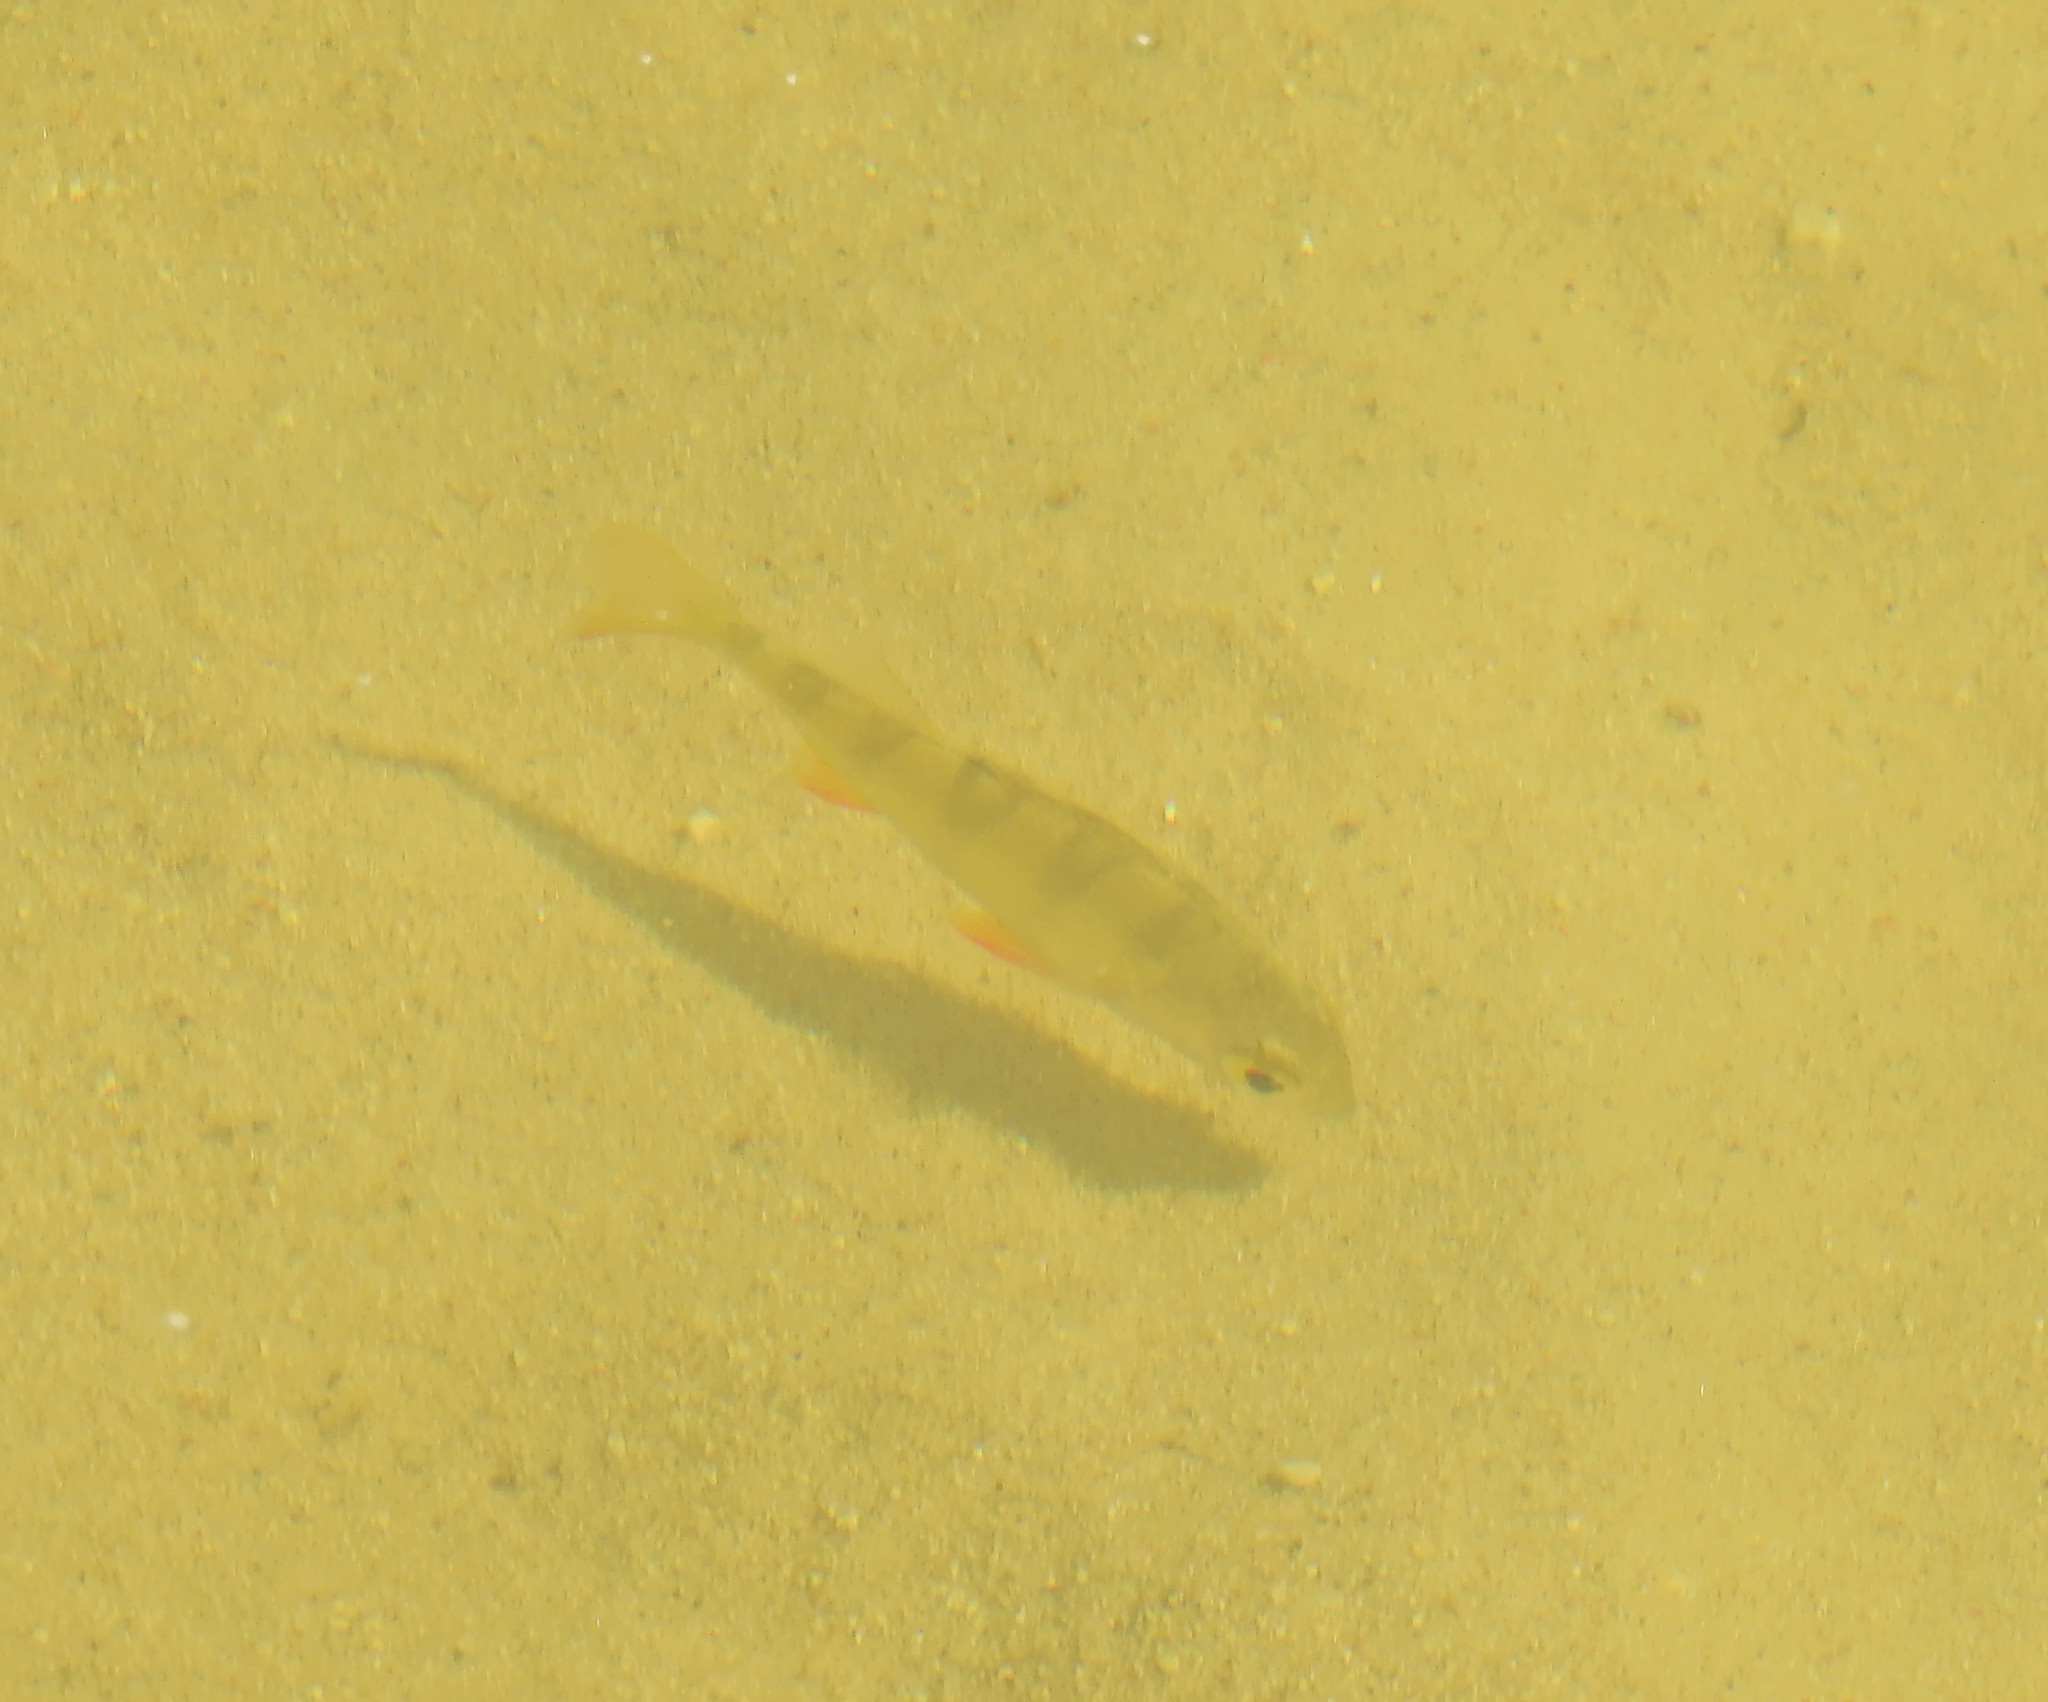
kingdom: Animalia
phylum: Chordata
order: Perciformes
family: Percidae
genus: Perca
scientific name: Perca fluviatilis
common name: Perch
